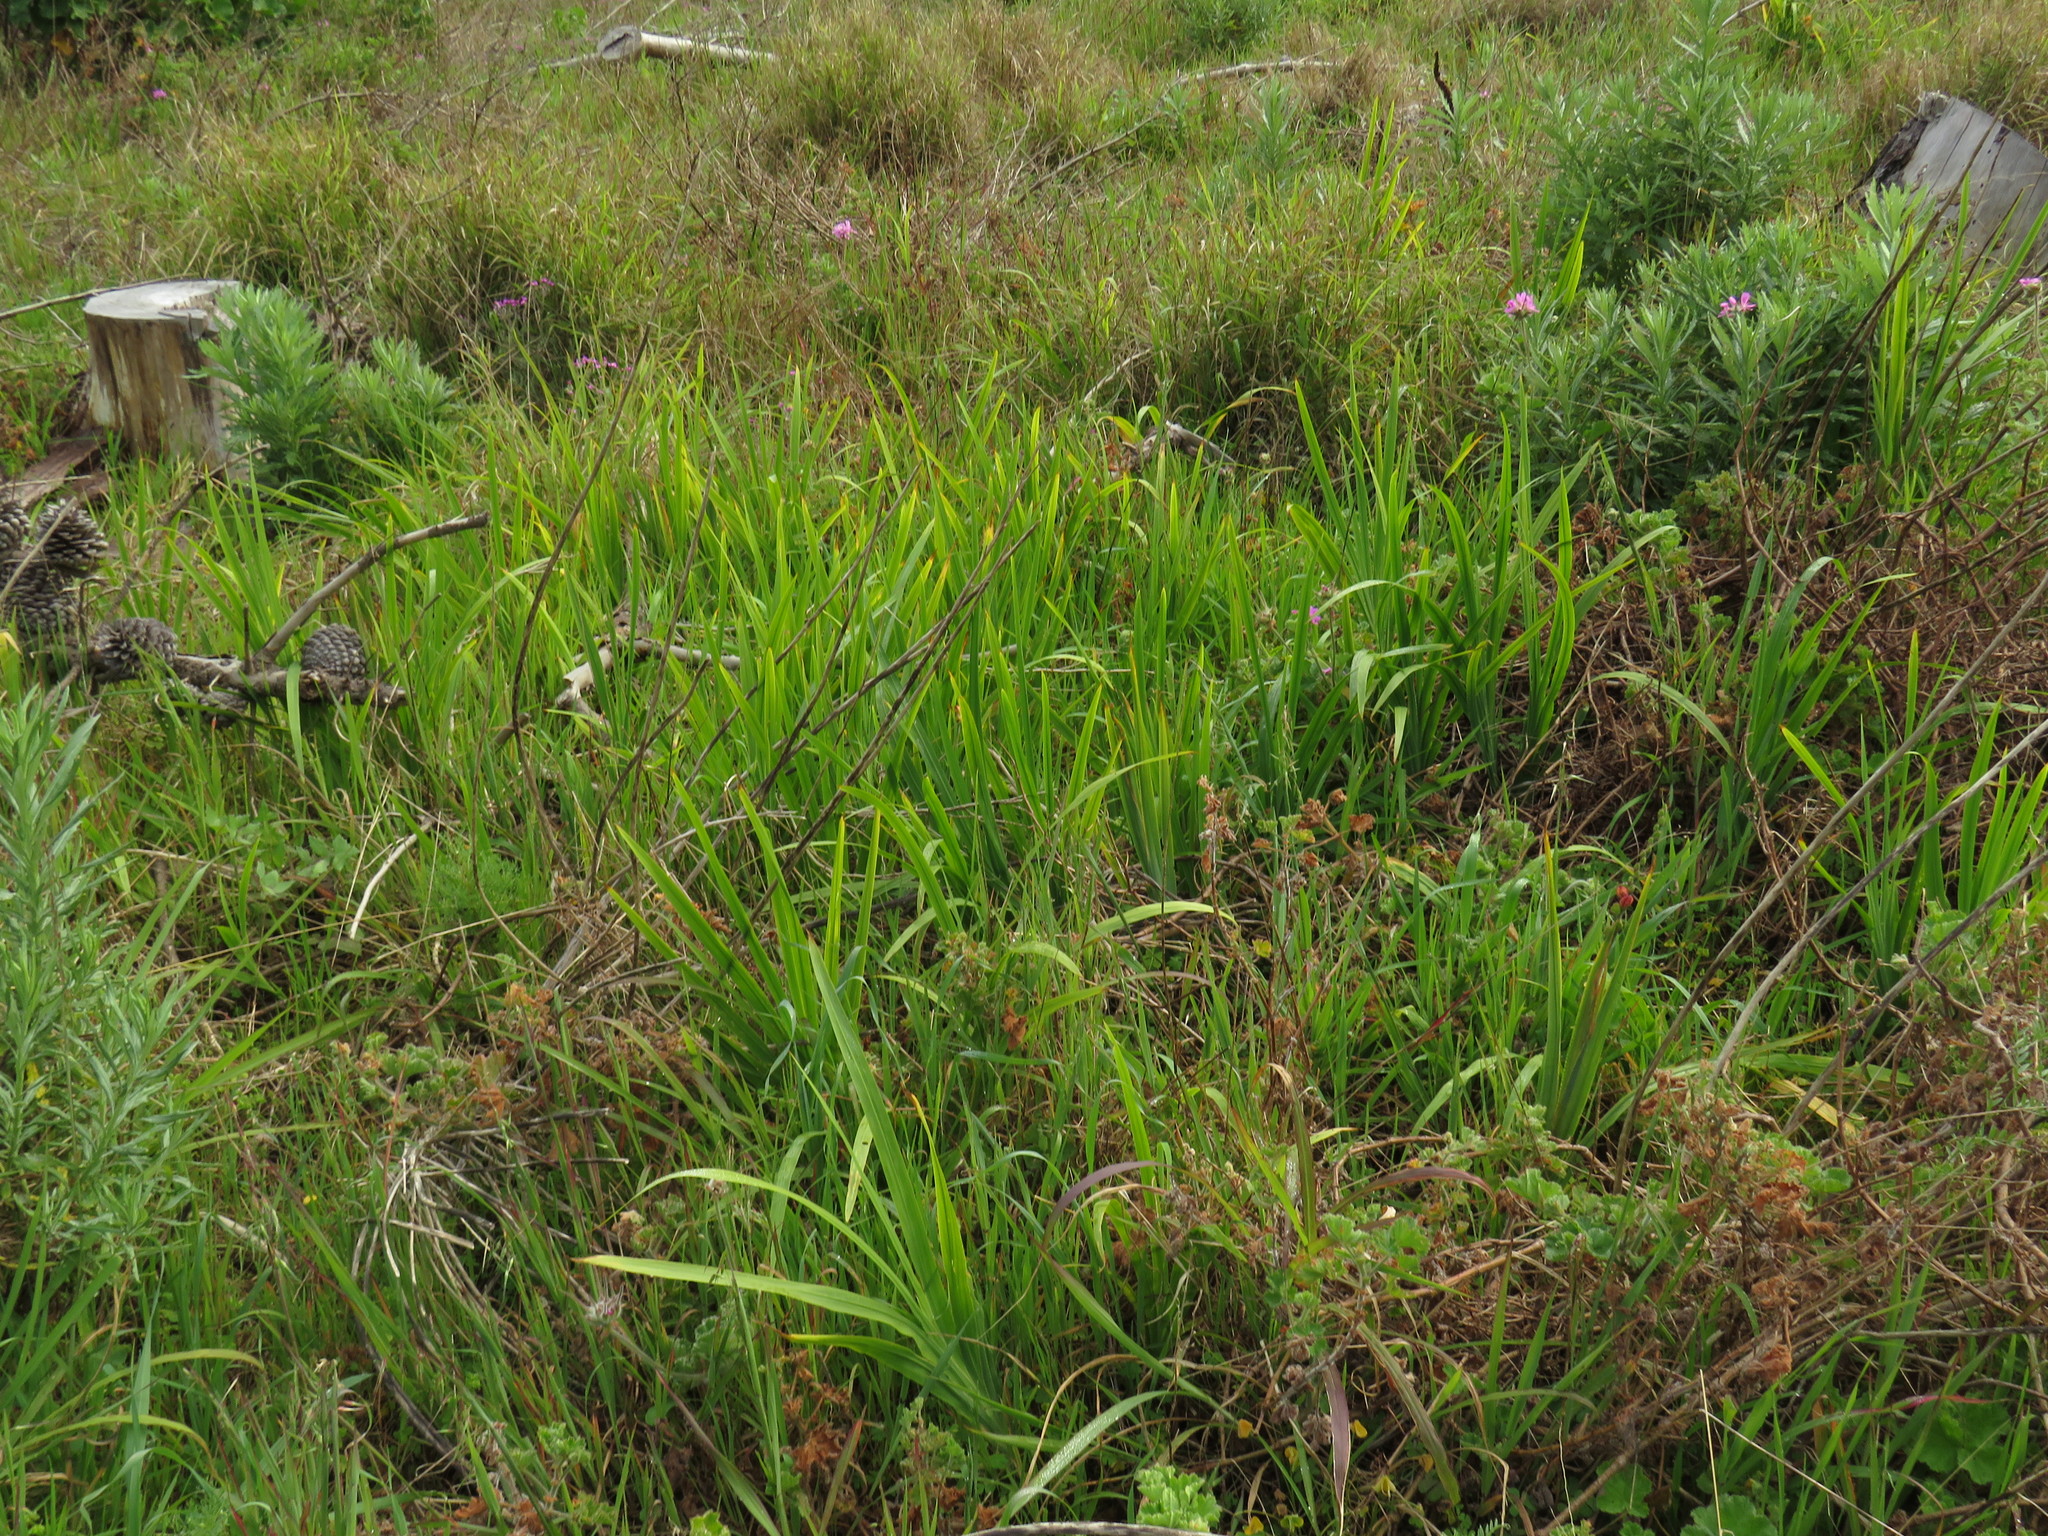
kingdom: Plantae
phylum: Tracheophyta
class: Liliopsida
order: Asparagales
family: Iridaceae
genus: Chasmanthe
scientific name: Chasmanthe aethiopica
